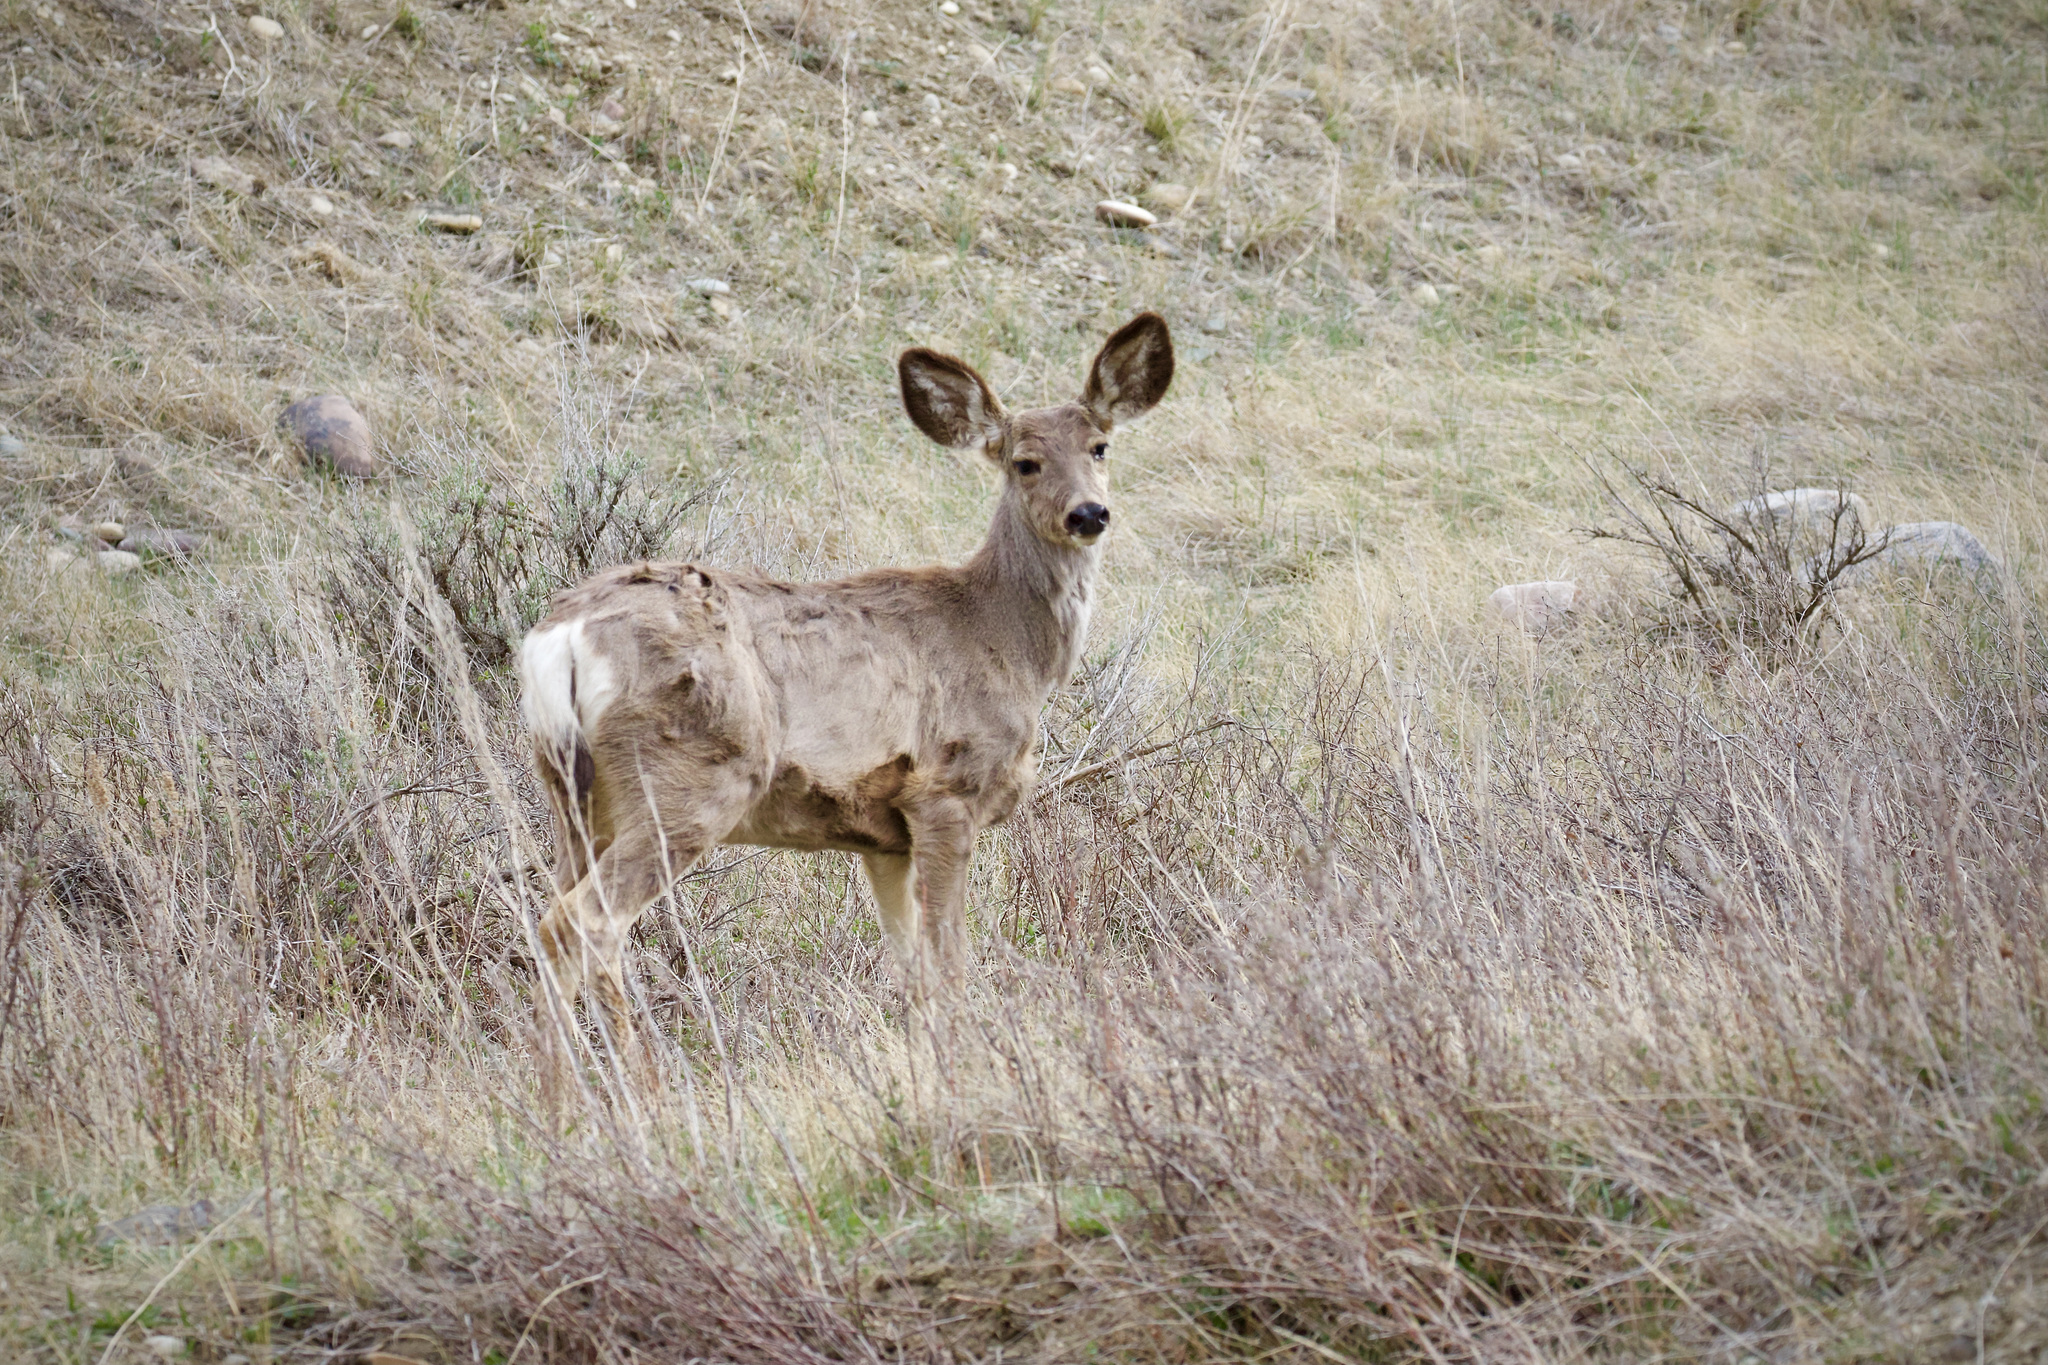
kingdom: Animalia
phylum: Chordata
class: Mammalia
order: Artiodactyla
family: Cervidae
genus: Odocoileus
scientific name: Odocoileus hemionus
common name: Mule deer
